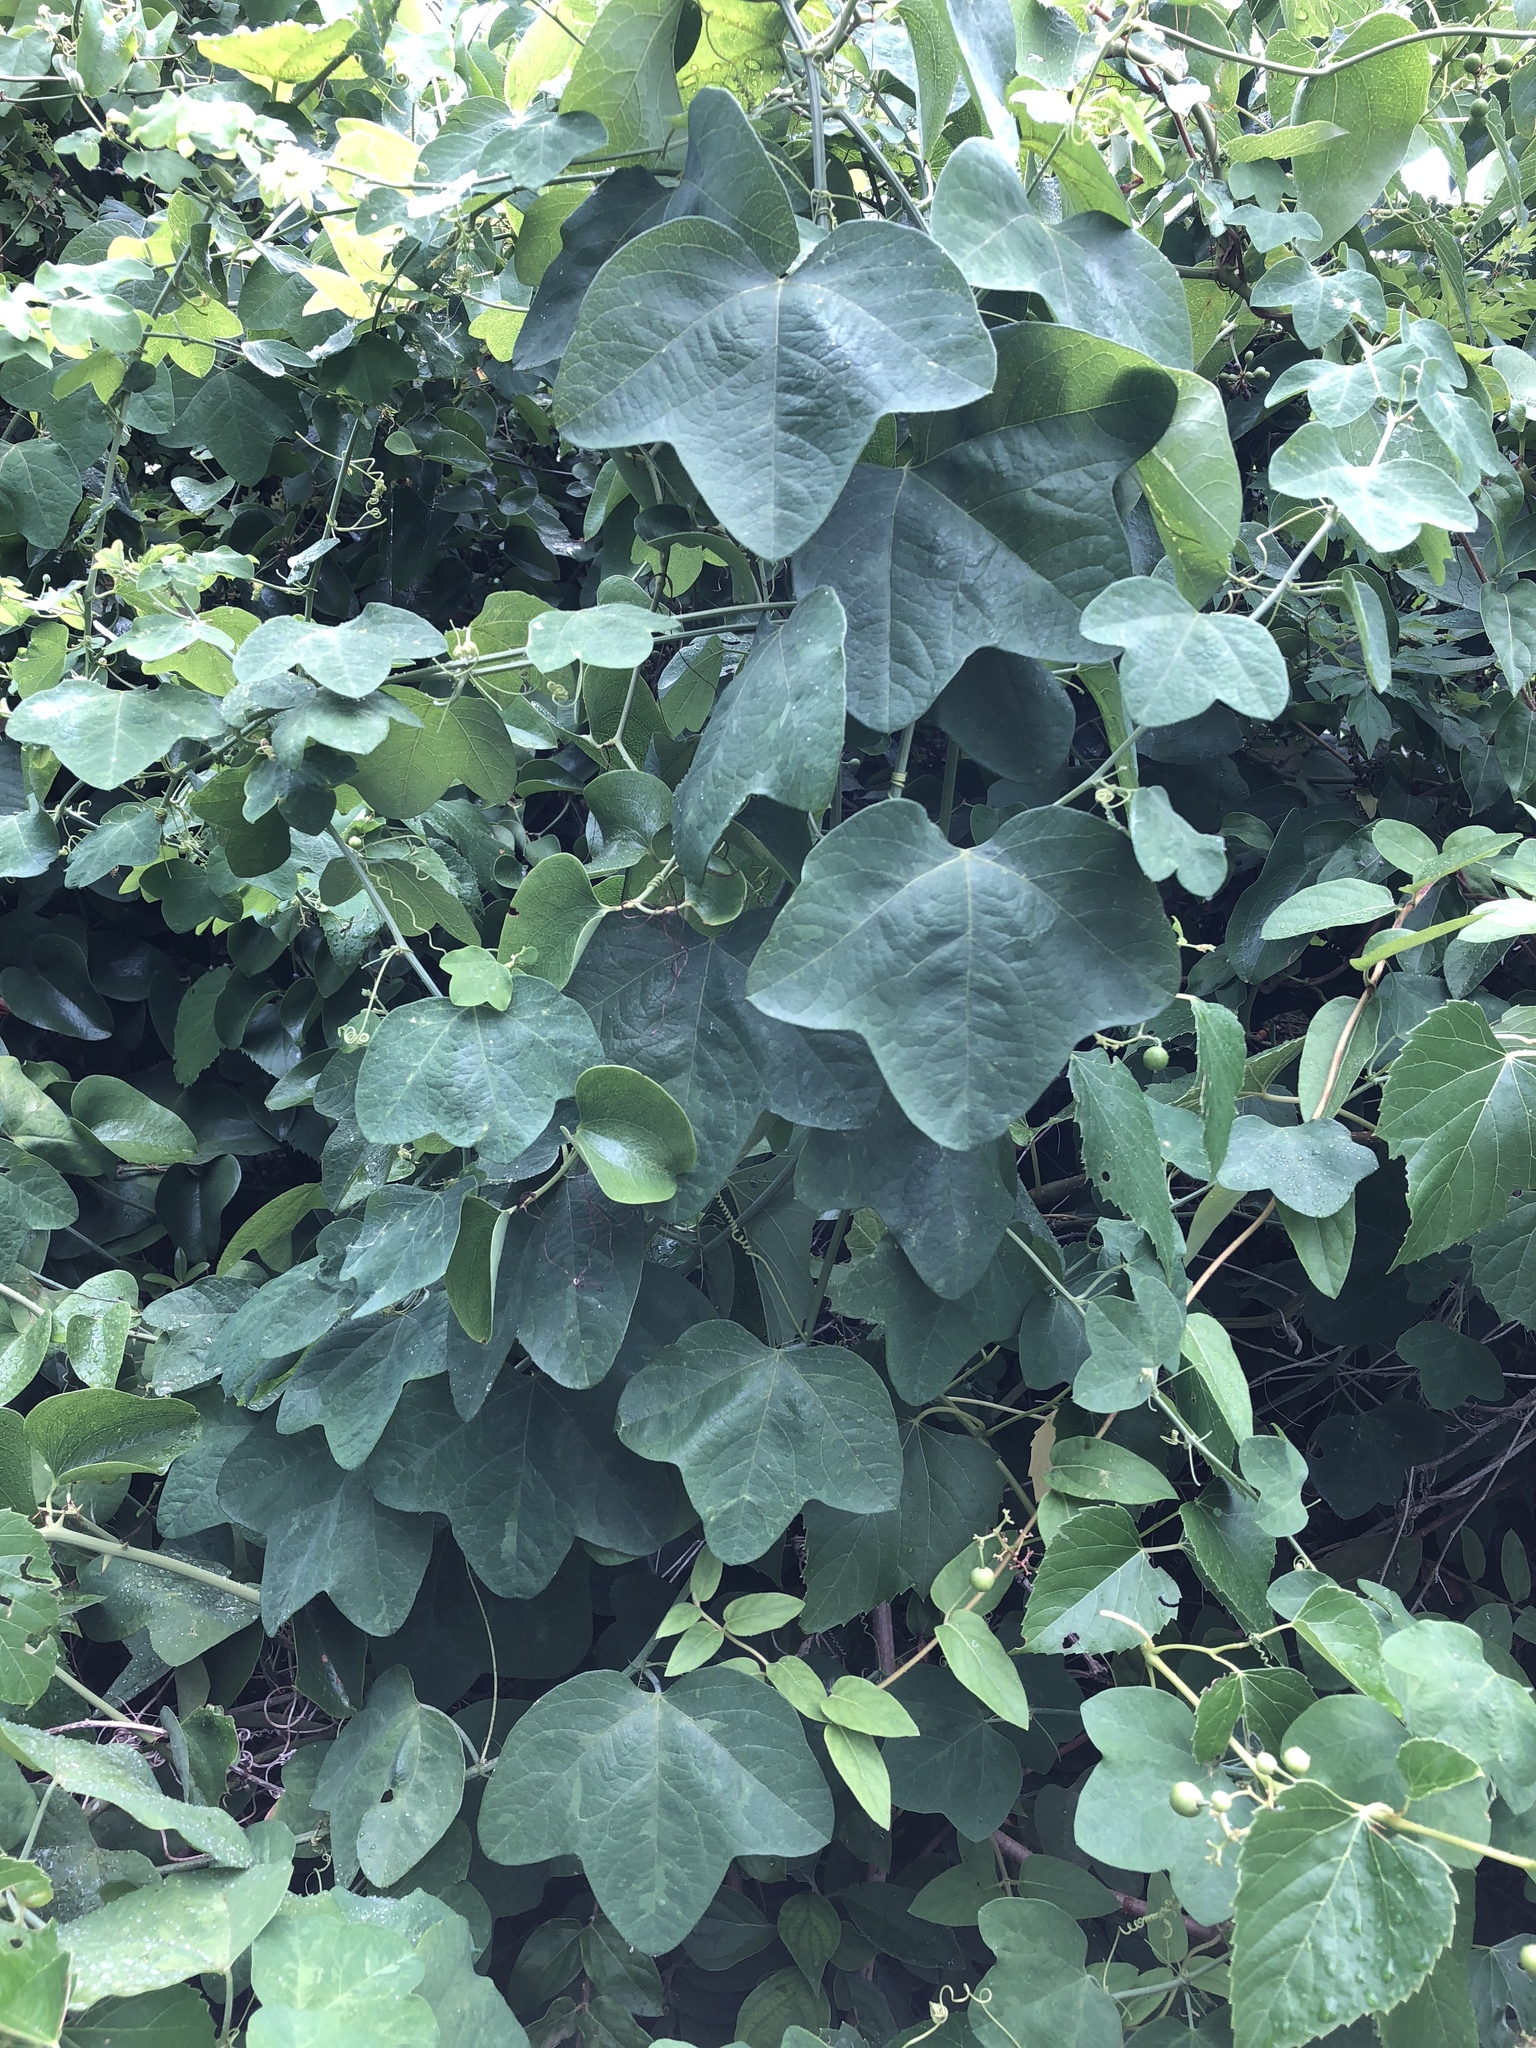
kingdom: Plantae
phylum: Tracheophyta
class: Magnoliopsida
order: Malpighiales
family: Passifloraceae
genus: Passiflora
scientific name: Passiflora lutea
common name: Yellow passionflower
